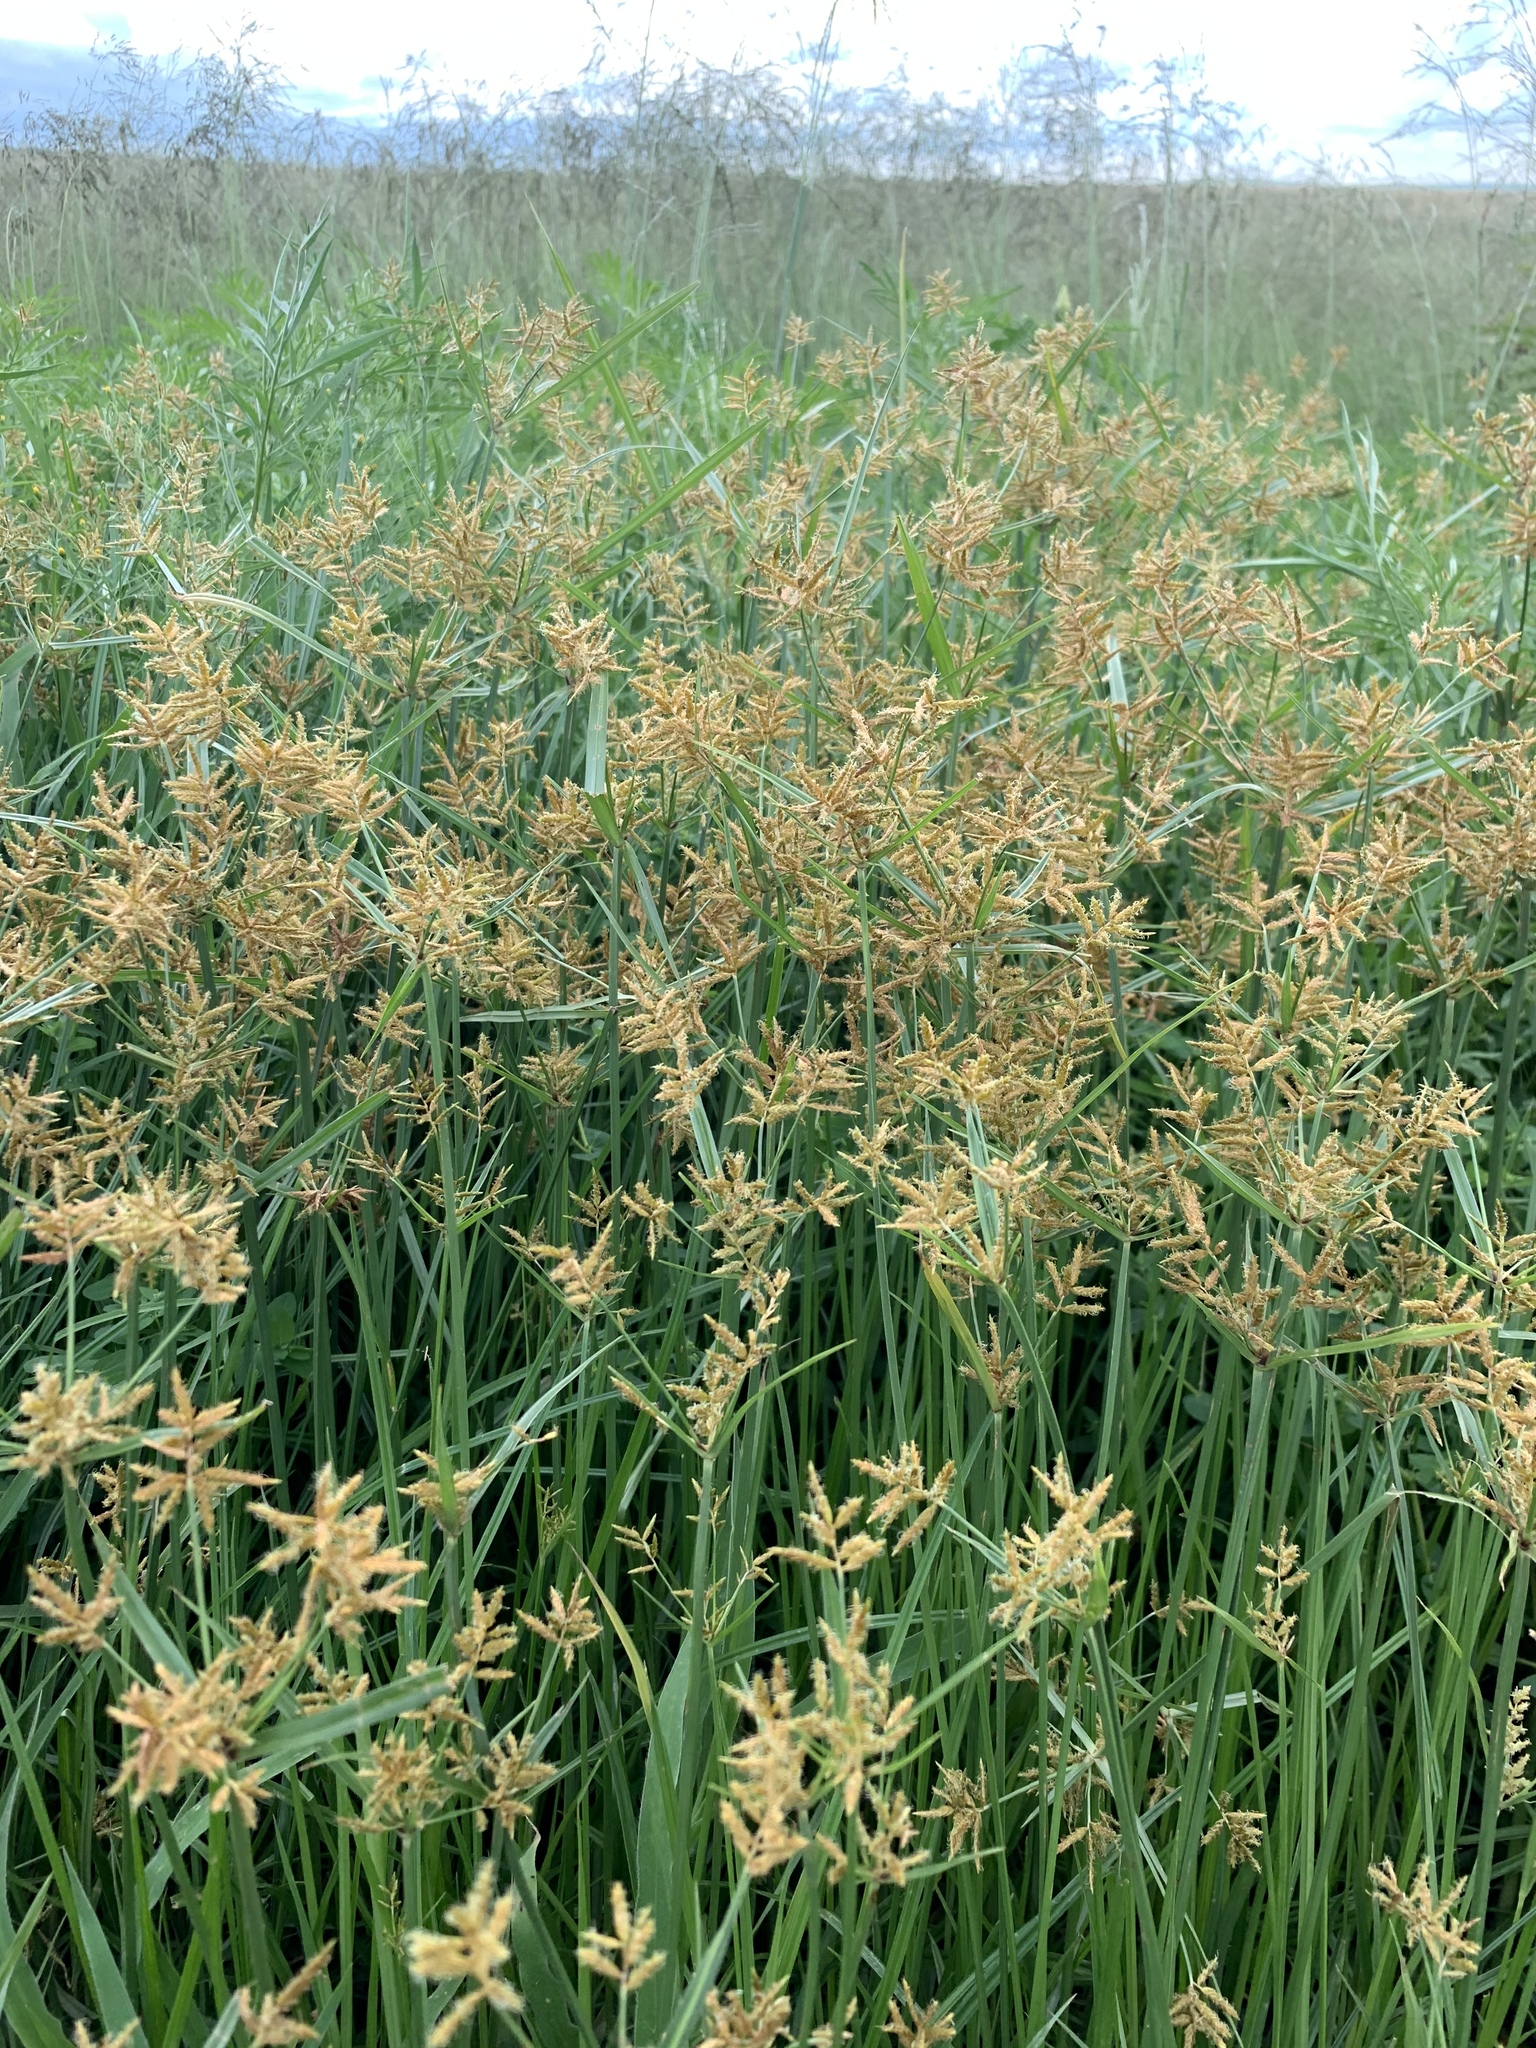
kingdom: Plantae
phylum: Tracheophyta
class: Liliopsida
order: Poales
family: Cyperaceae
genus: Cyperus
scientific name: Cyperus esculentus
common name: Yellow nutsedge
